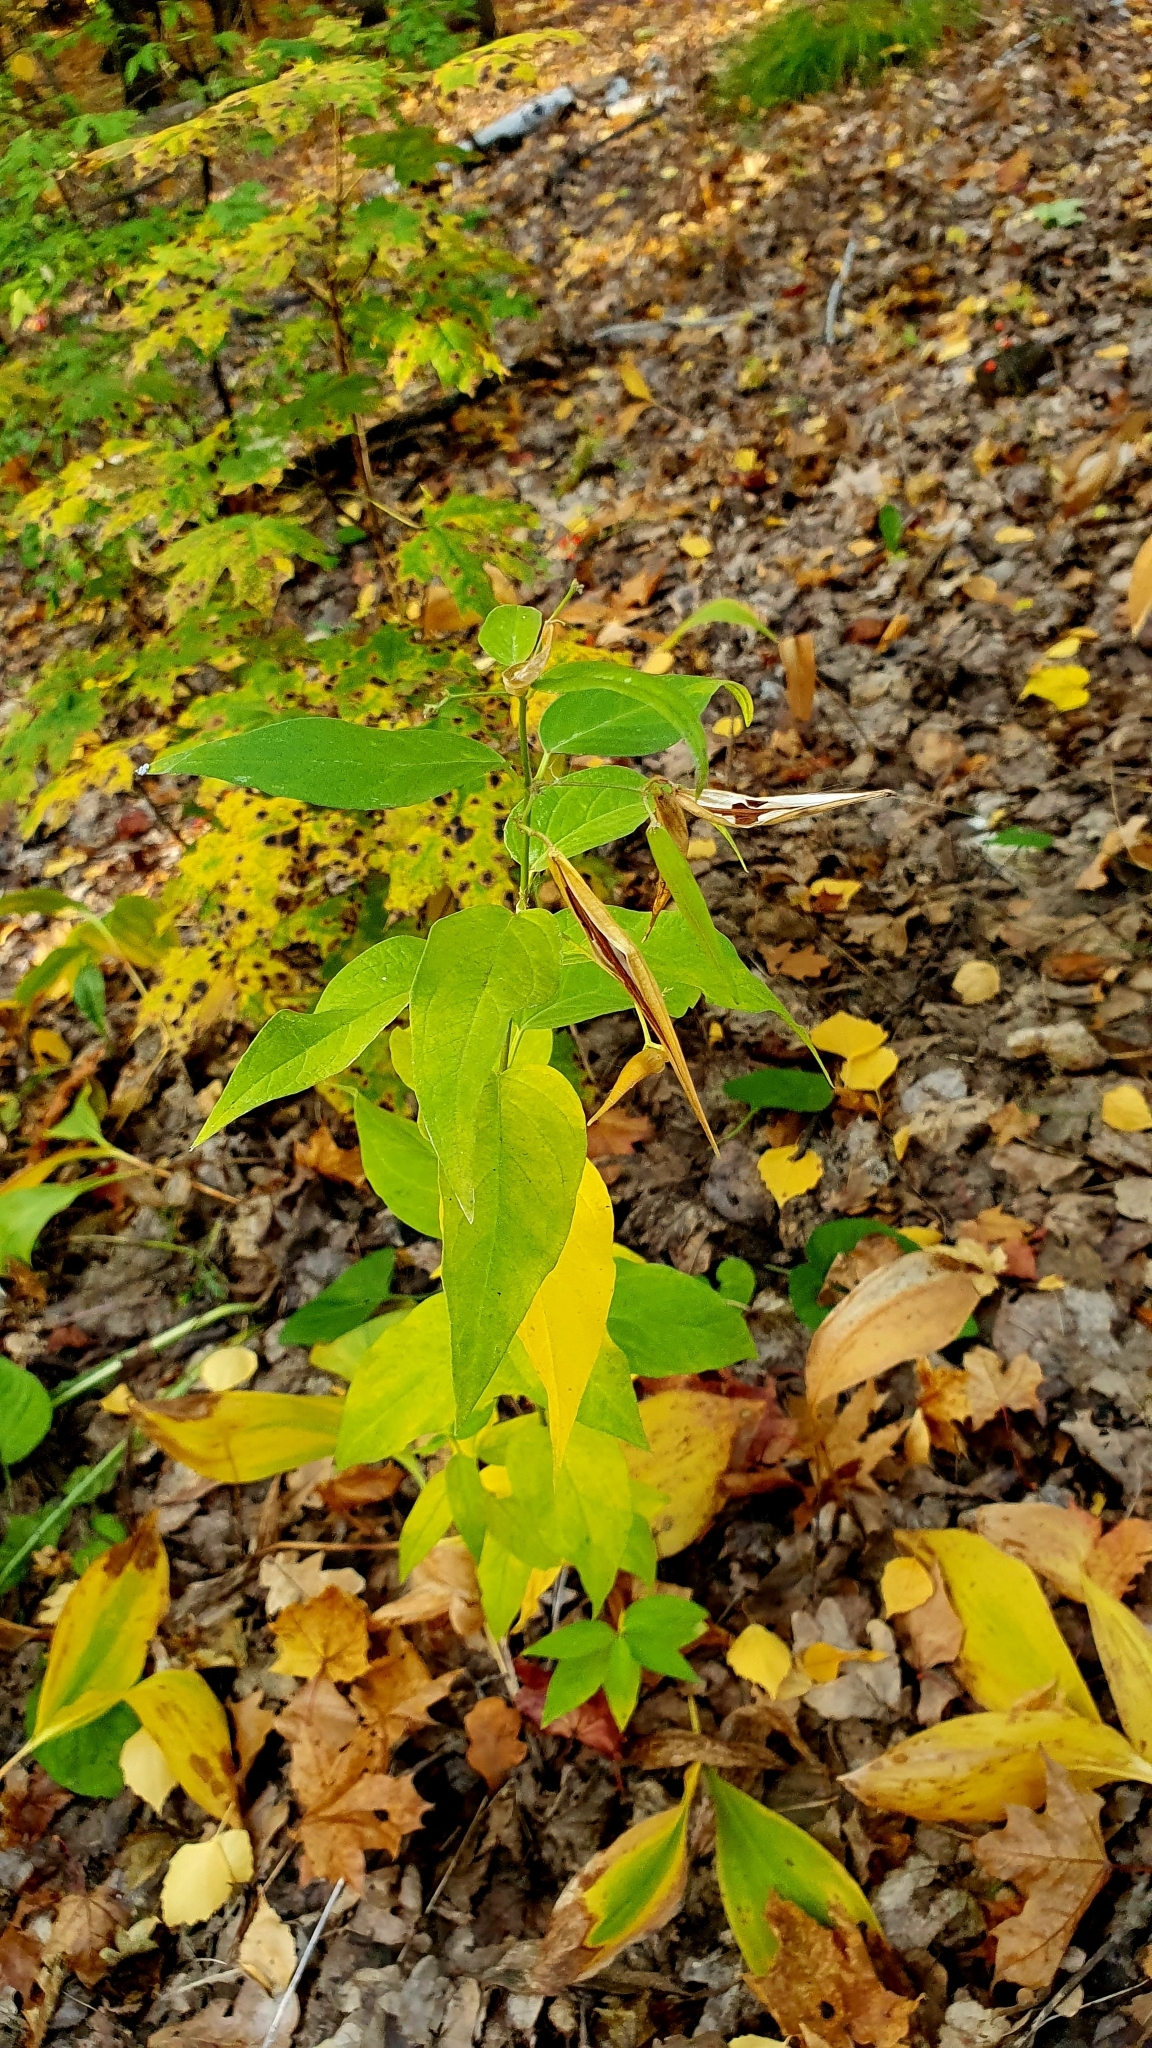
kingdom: Plantae
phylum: Tracheophyta
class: Magnoliopsida
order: Gentianales
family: Apocynaceae
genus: Vincetoxicum
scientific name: Vincetoxicum hirundinaria
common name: White swallowwort
